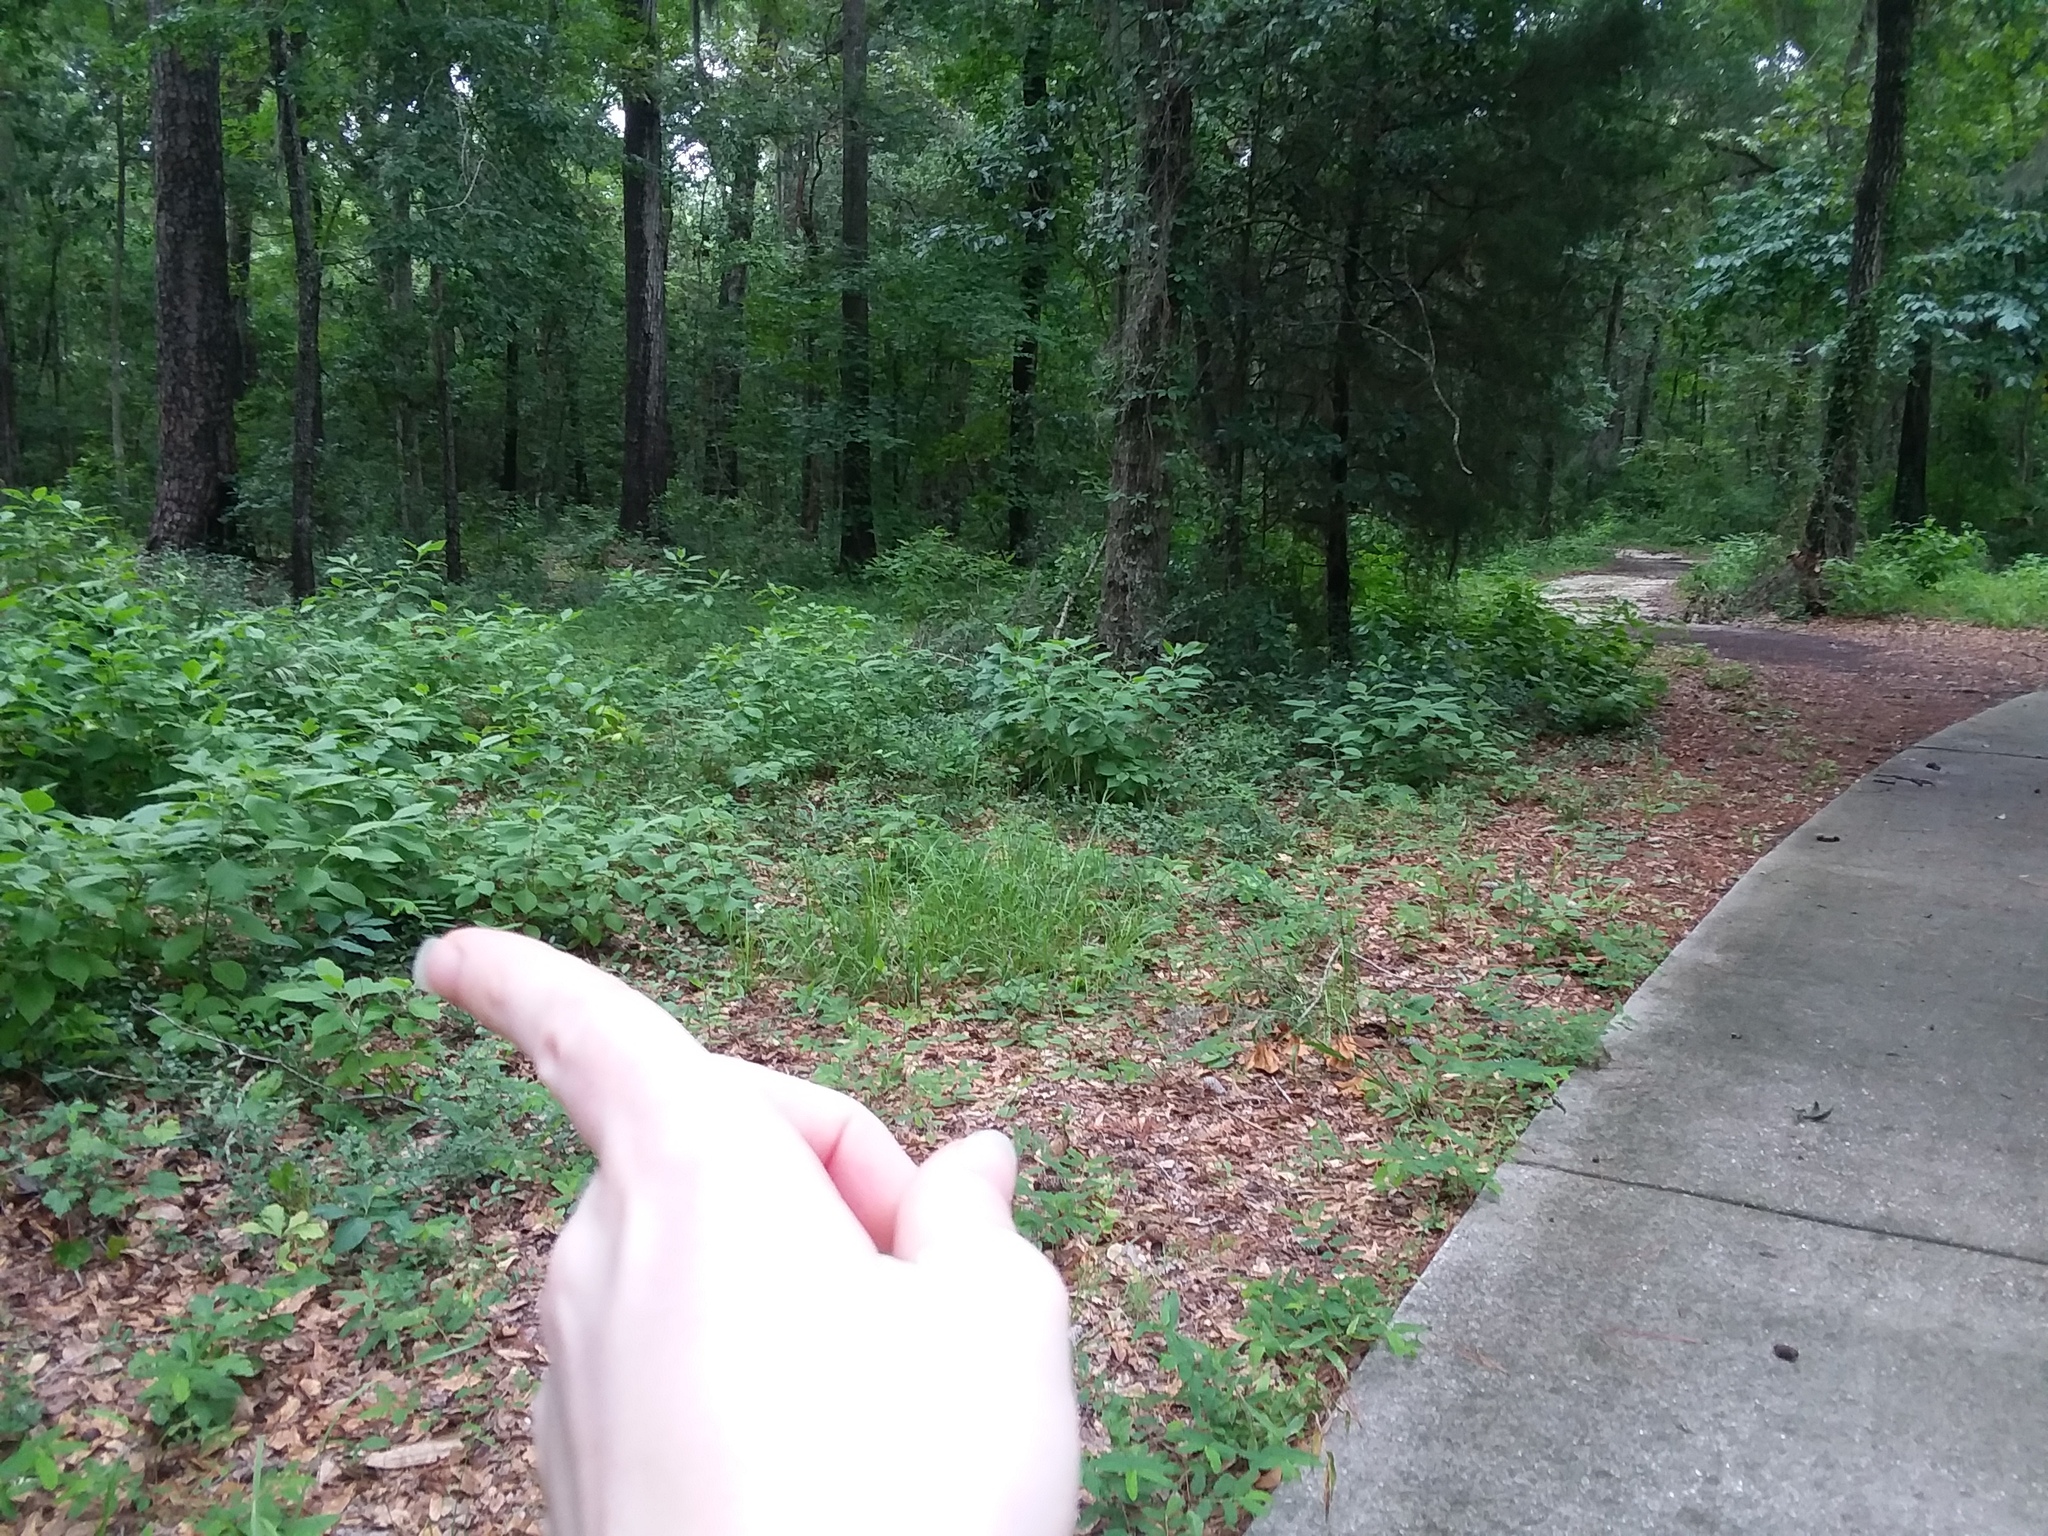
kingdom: Plantae
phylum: Tracheophyta
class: Magnoliopsida
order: Ericales
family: Ebenaceae
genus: Diospyros
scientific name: Diospyros virginiana
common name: Persimmon
